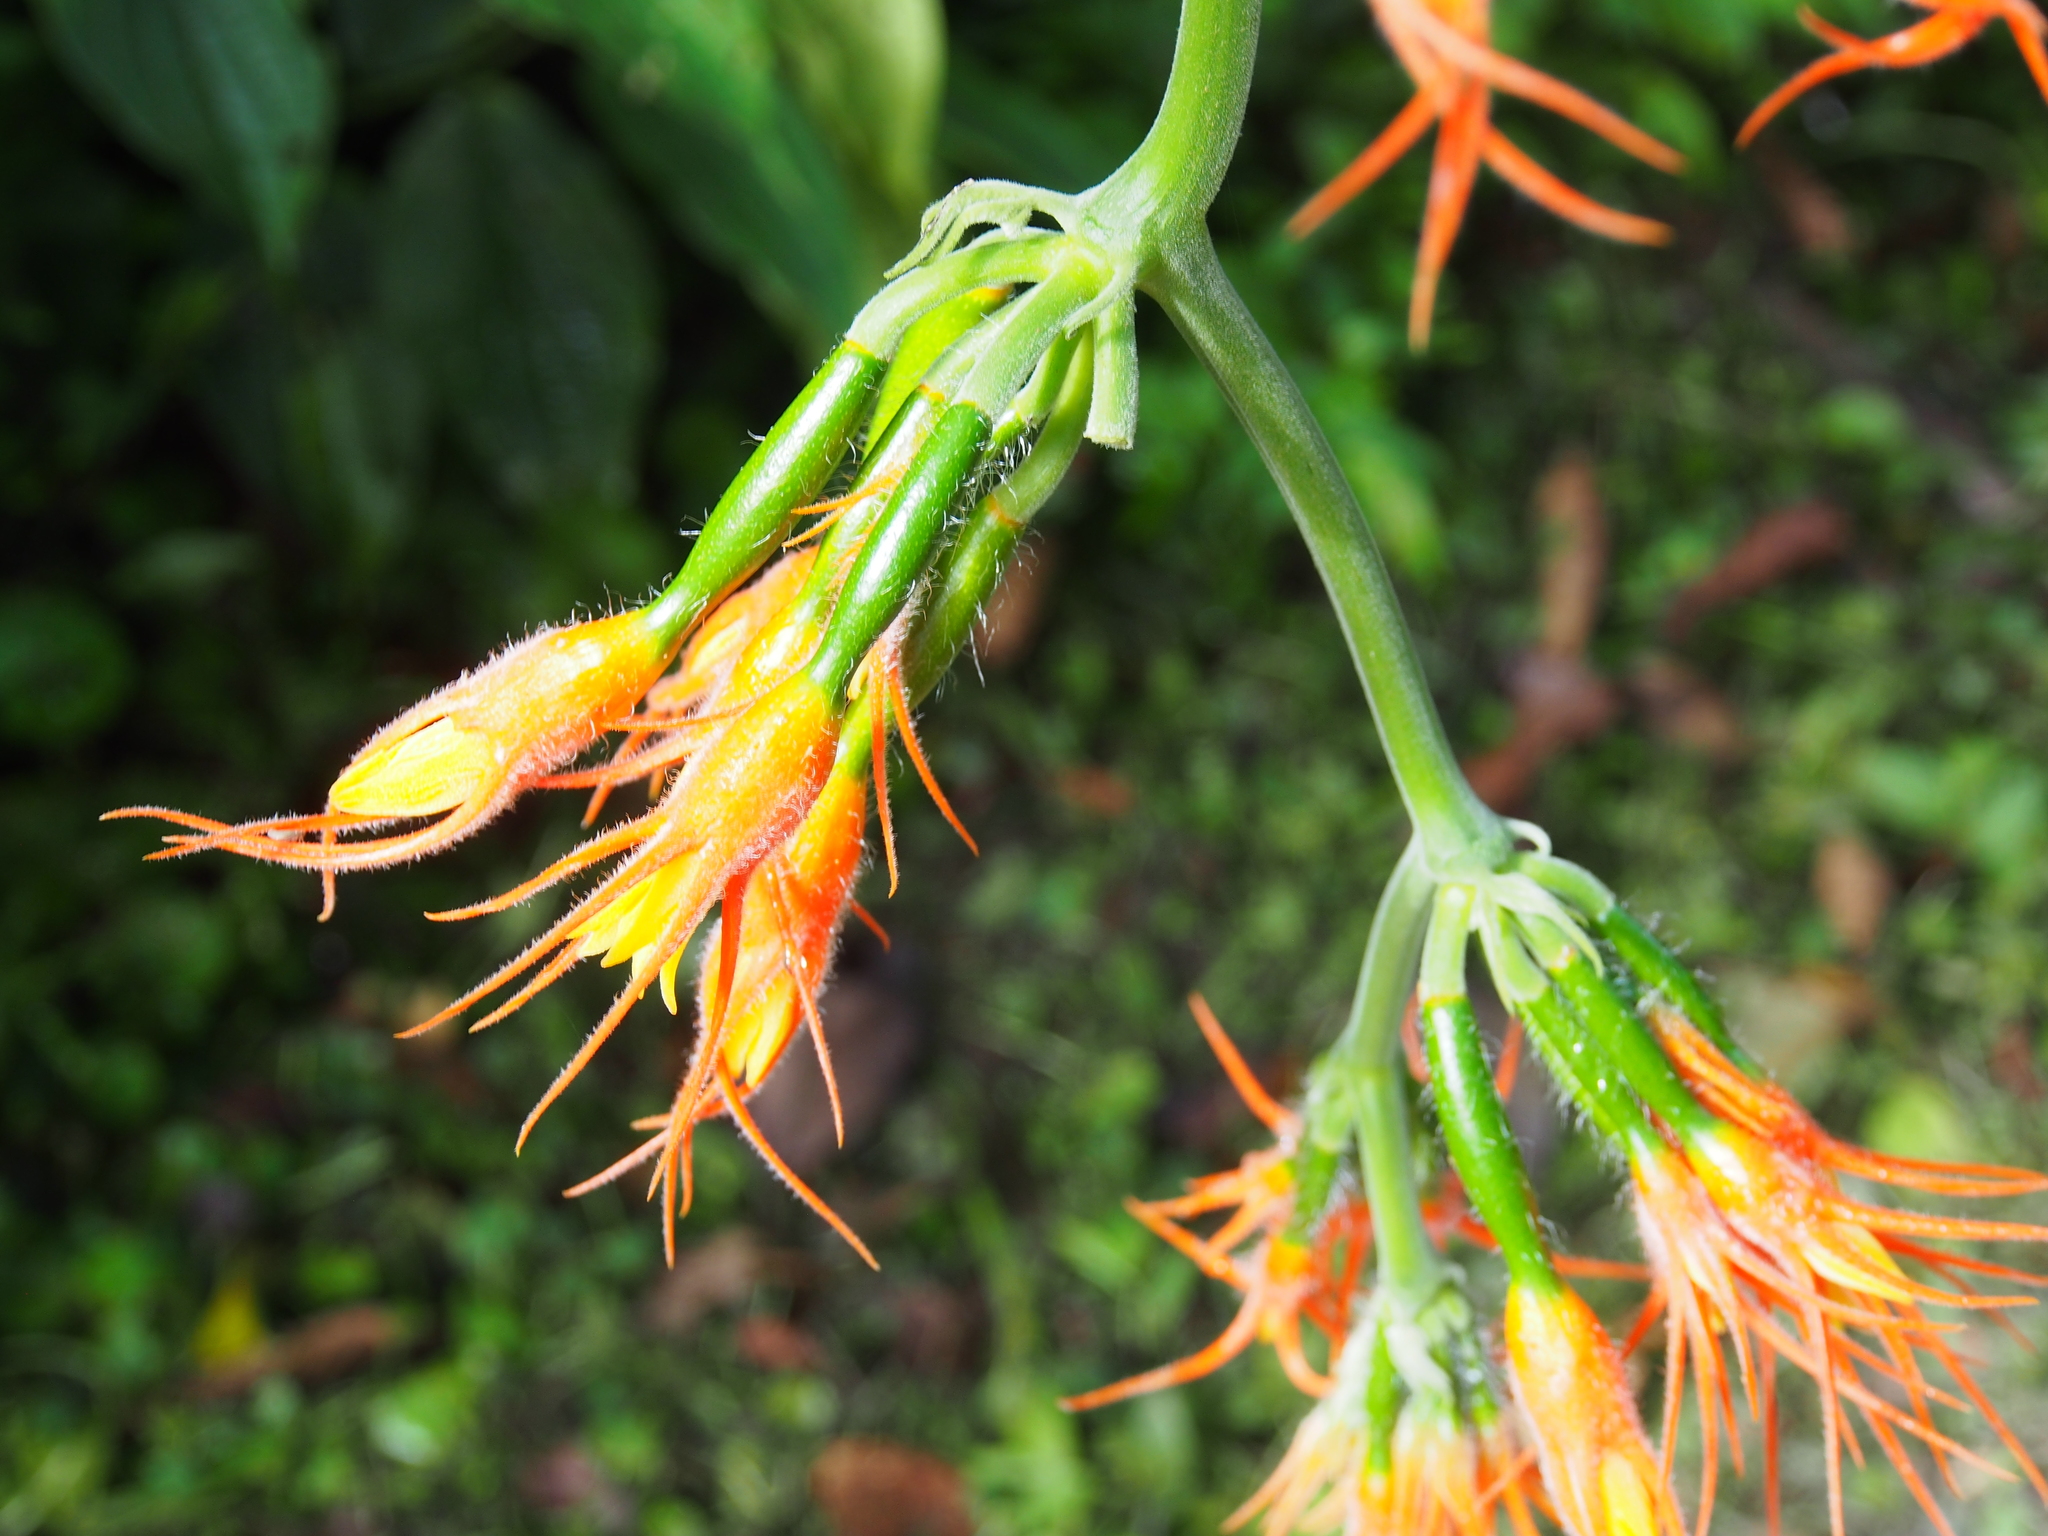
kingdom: Plantae
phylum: Tracheophyta
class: Magnoliopsida
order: Cucurbitales
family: Cucurbitaceae
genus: Gurania
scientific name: Gurania makoyana
